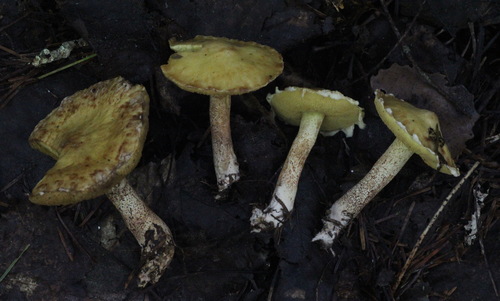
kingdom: Fungi
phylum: Basidiomycota
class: Agaricomycetes
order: Boletales
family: Suillaceae
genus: Suillus
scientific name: Suillus americanus
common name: Chicken fat mushroom
